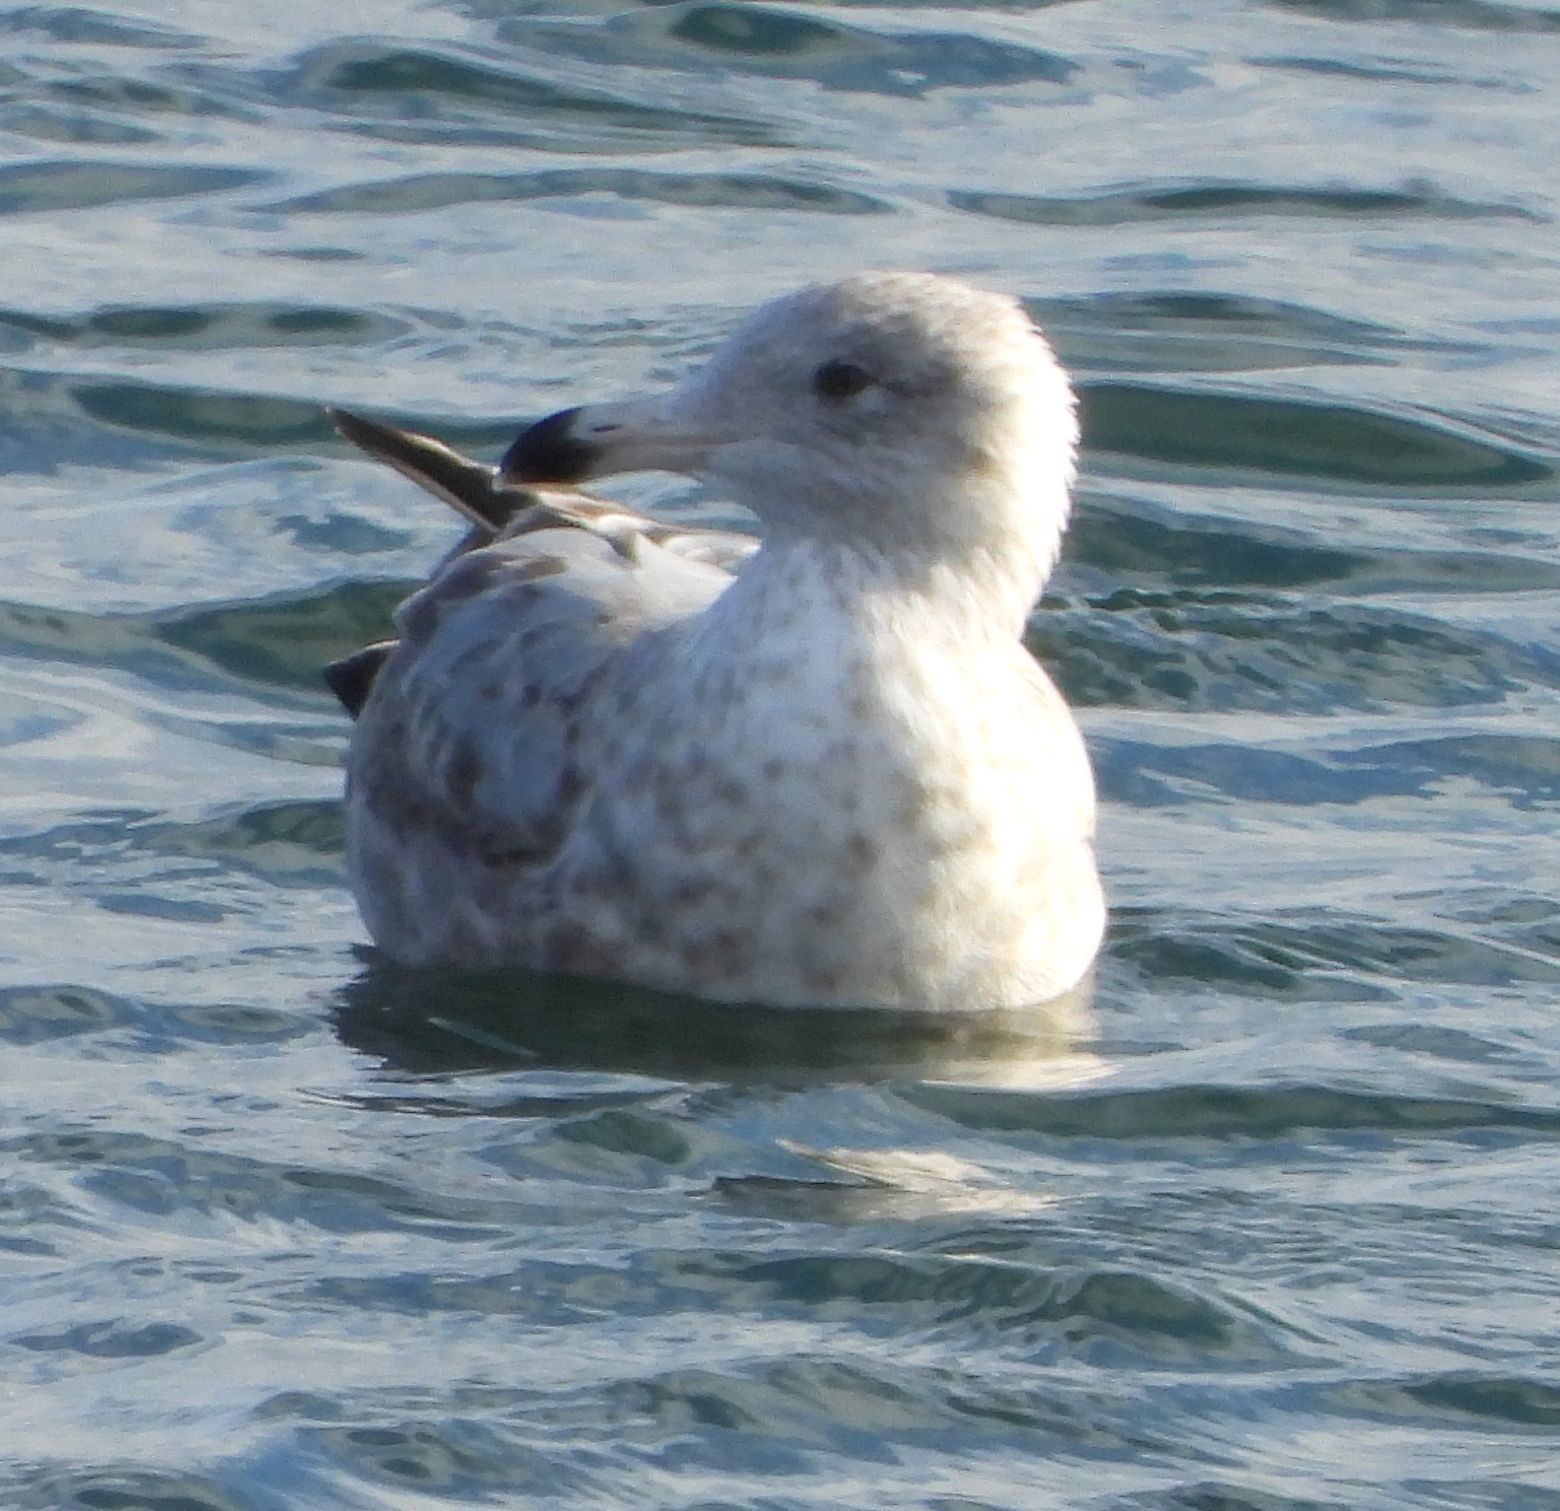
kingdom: Animalia
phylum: Chordata
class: Aves
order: Charadriiformes
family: Laridae
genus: Larus
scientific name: Larus argentatus
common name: Herring gull
